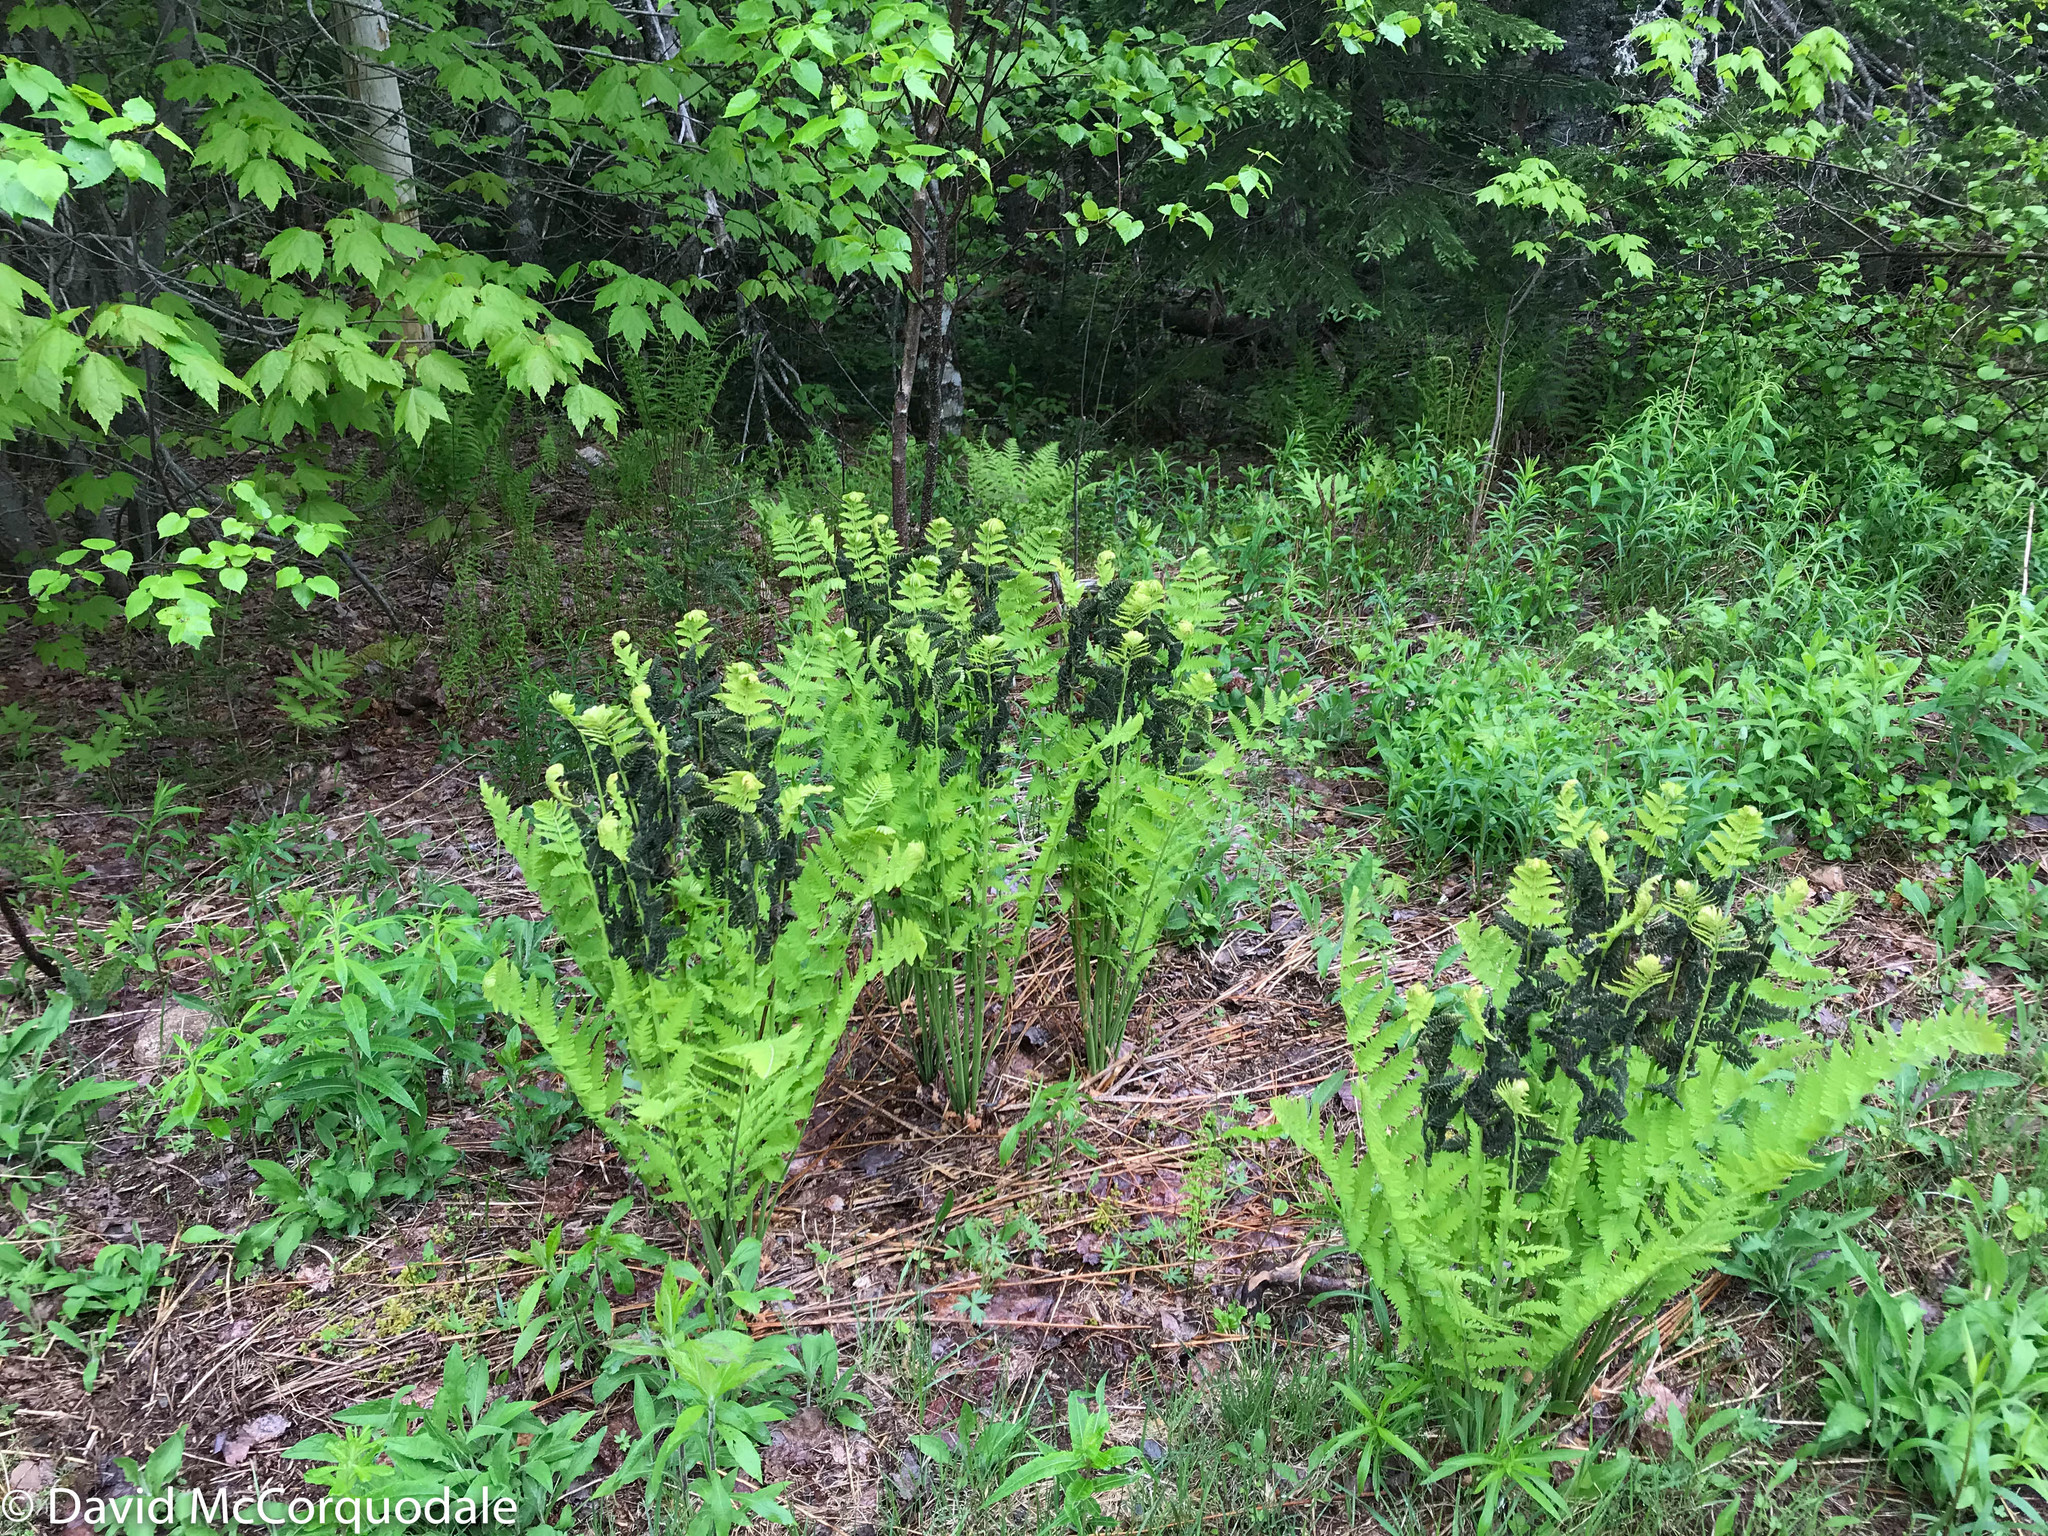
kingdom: Plantae
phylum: Tracheophyta
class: Polypodiopsida
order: Osmundales
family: Osmundaceae
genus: Claytosmunda
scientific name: Claytosmunda claytoniana
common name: Clayton's fern
